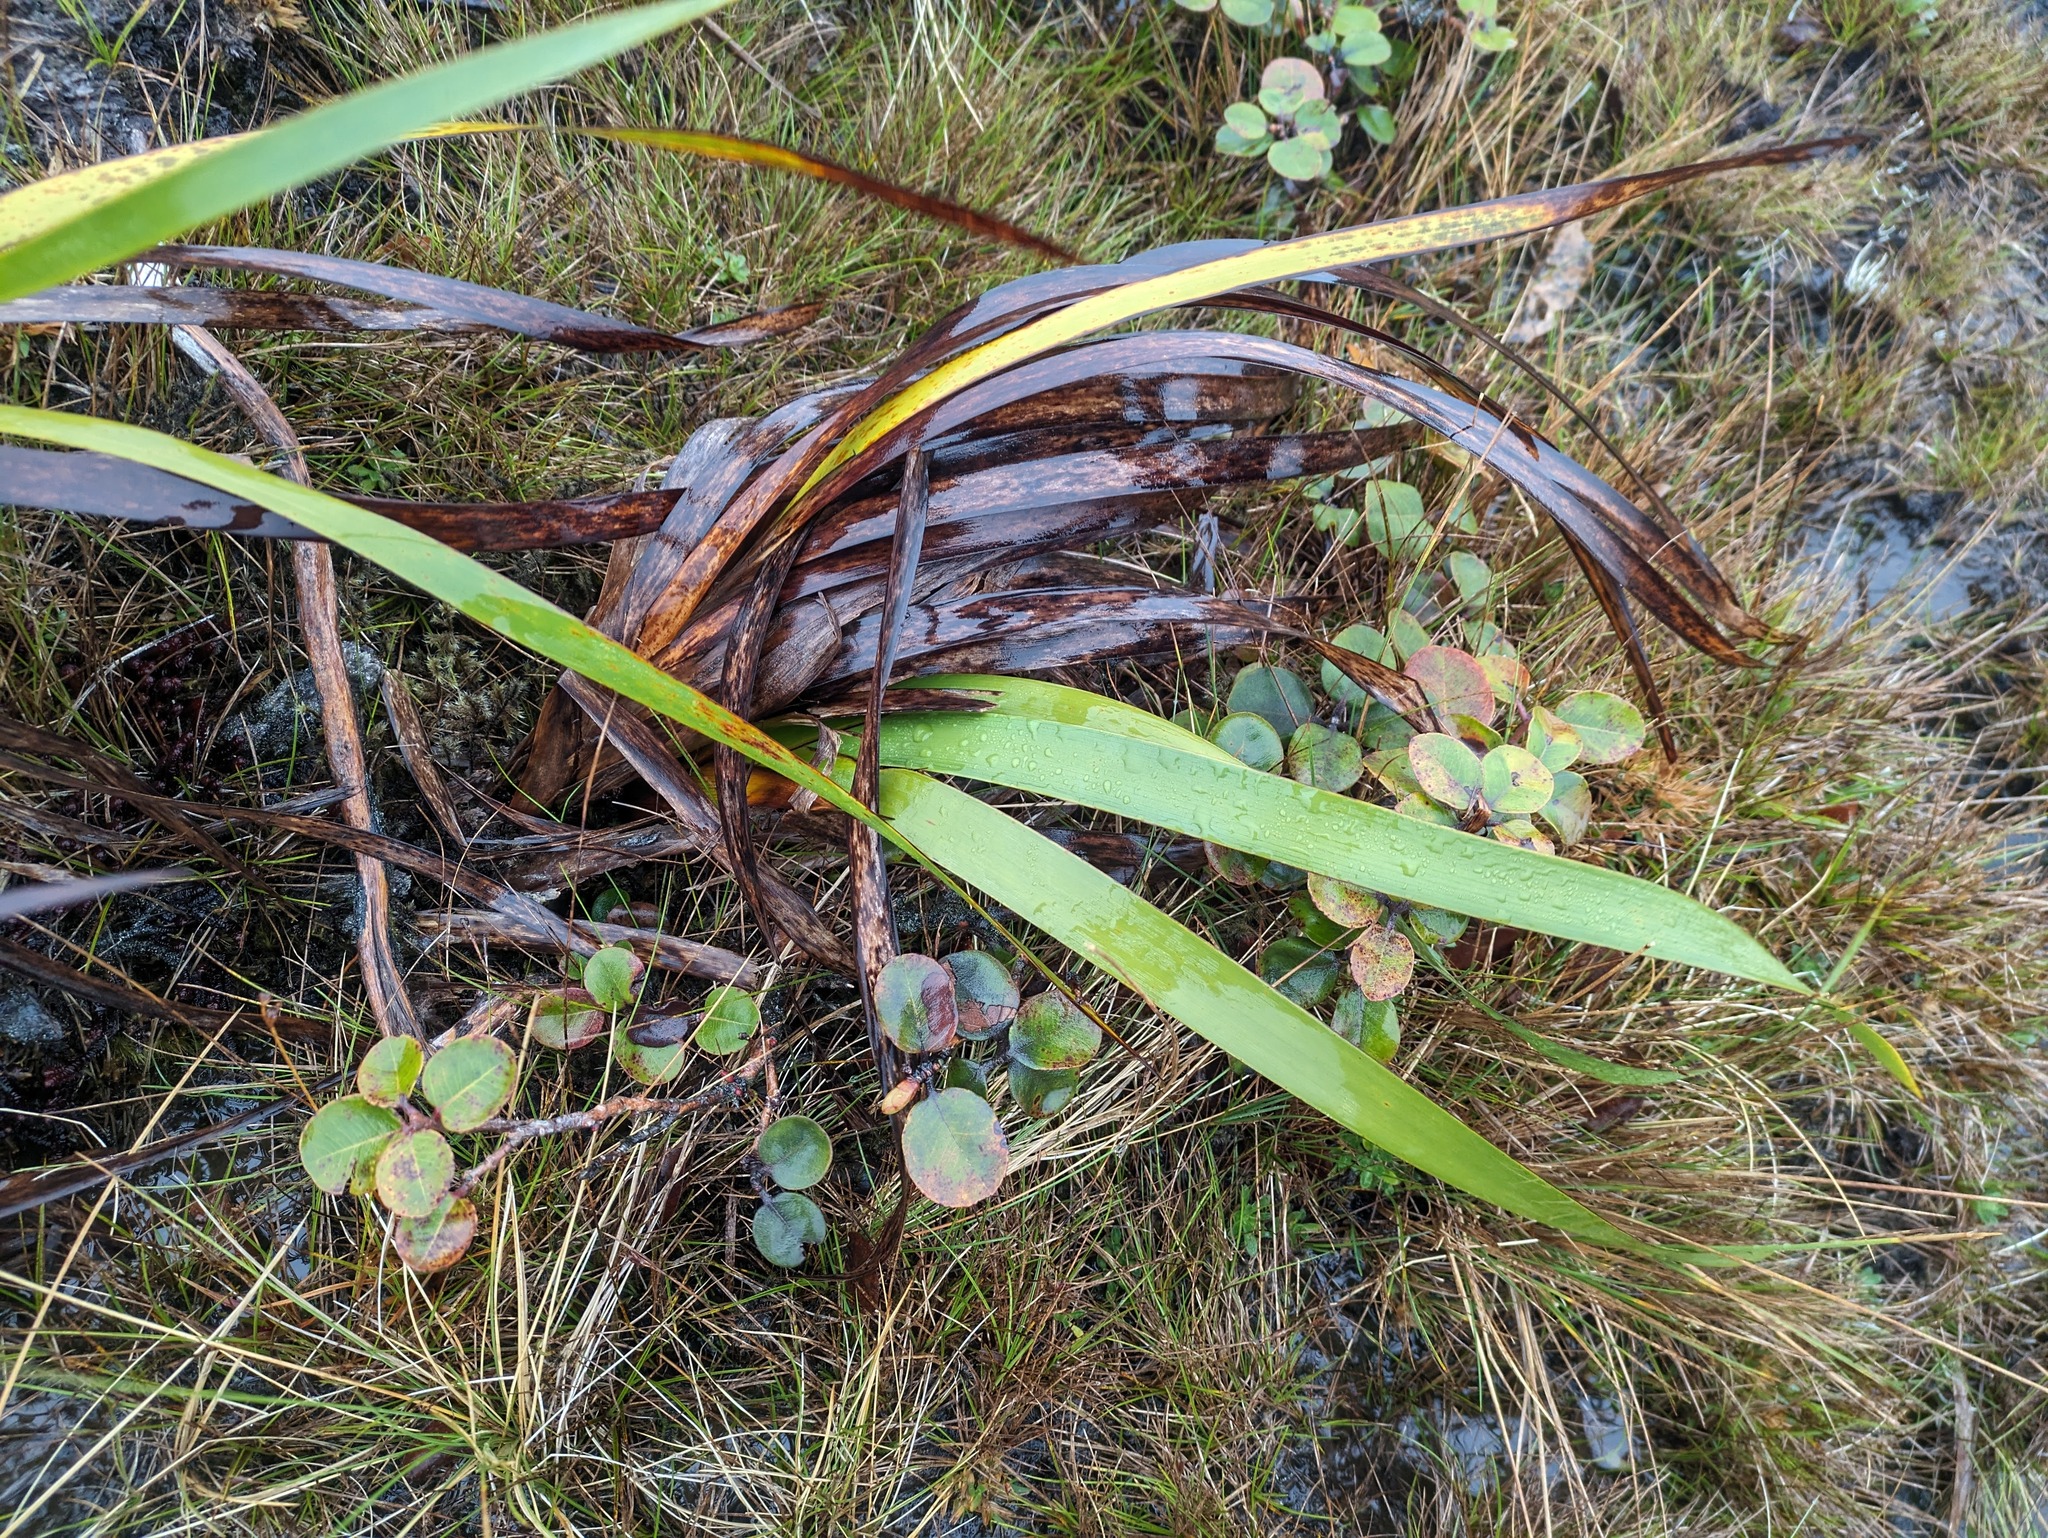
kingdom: Plantae
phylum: Tracheophyta
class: Liliopsida
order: Poales
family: Cyperaceae
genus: Machaerina
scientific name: Machaerina angustifolia
